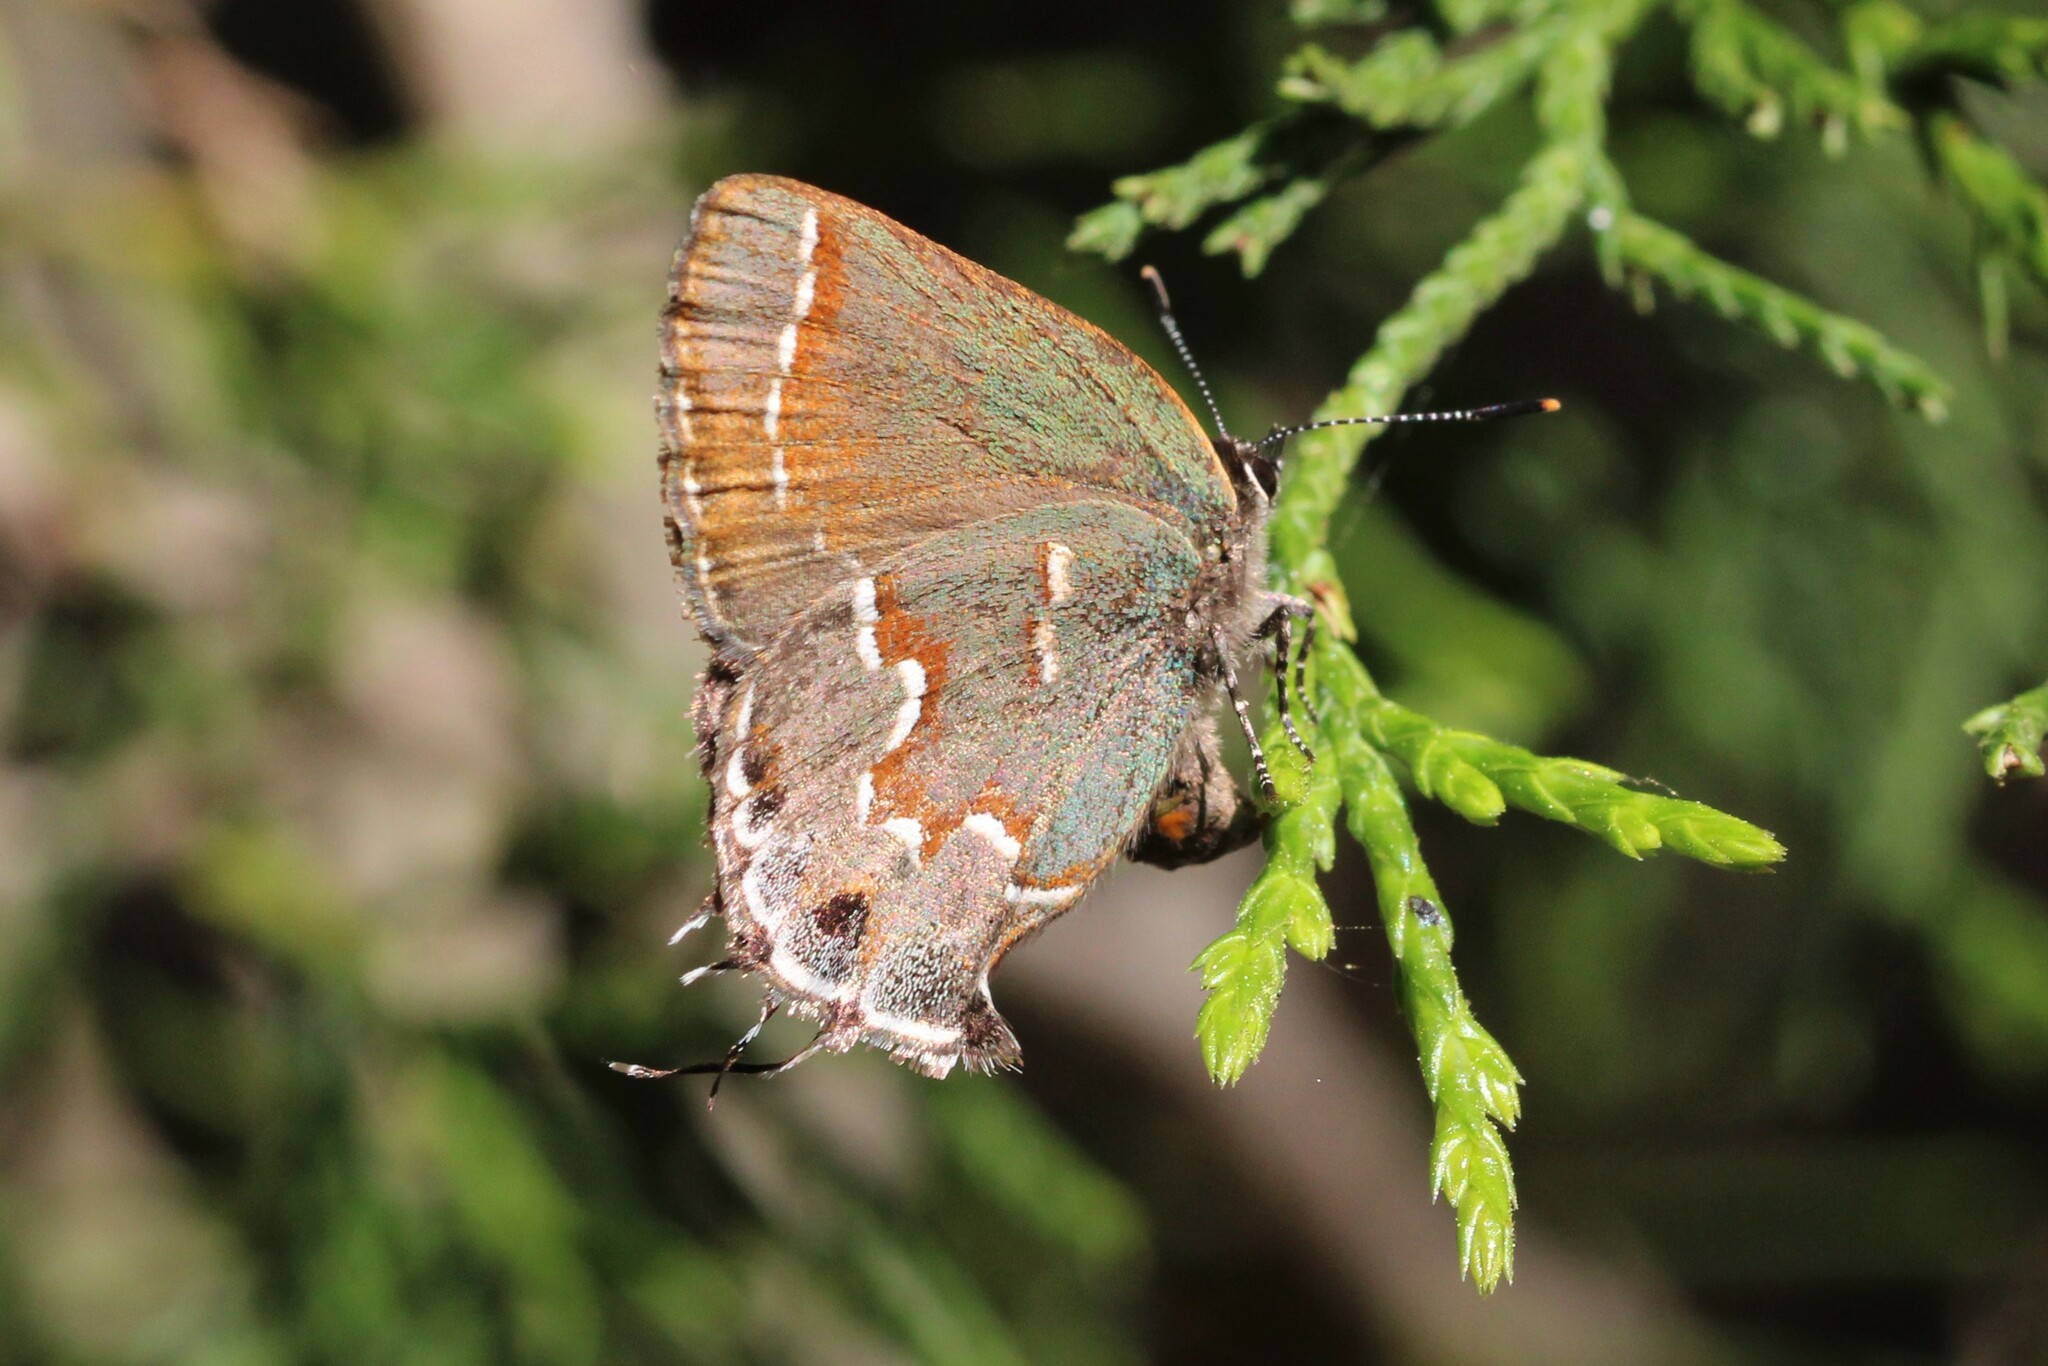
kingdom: Animalia
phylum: Arthropoda
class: Insecta
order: Lepidoptera
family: Lycaenidae
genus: Mitoura
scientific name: Mitoura gryneus
